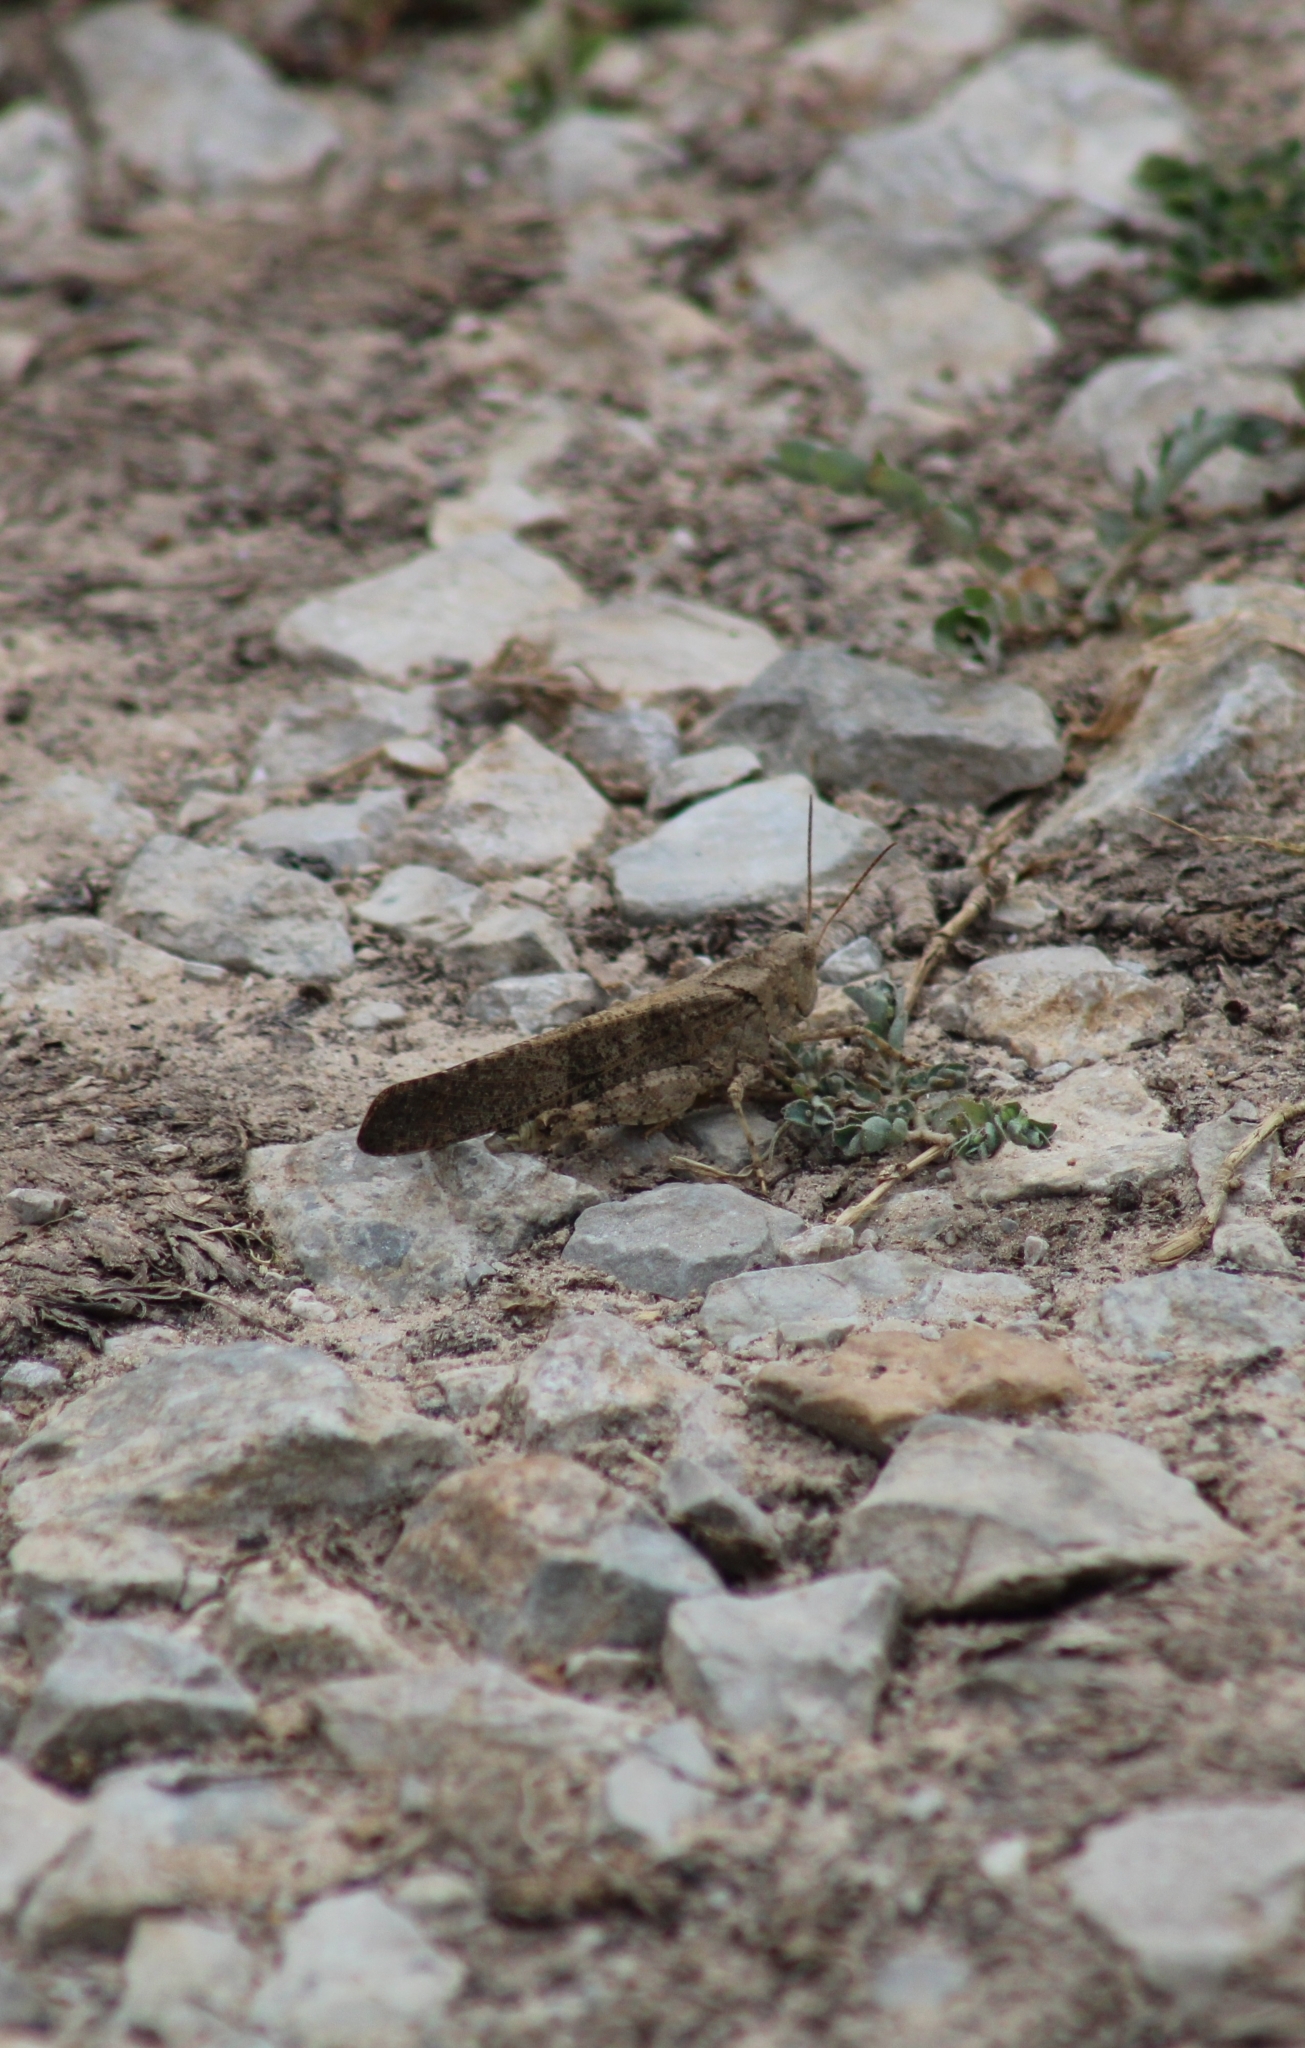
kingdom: Animalia
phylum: Arthropoda
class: Insecta
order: Orthoptera
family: Acrididae
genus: Dissosteira
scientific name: Dissosteira carolina
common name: Carolina grasshopper
